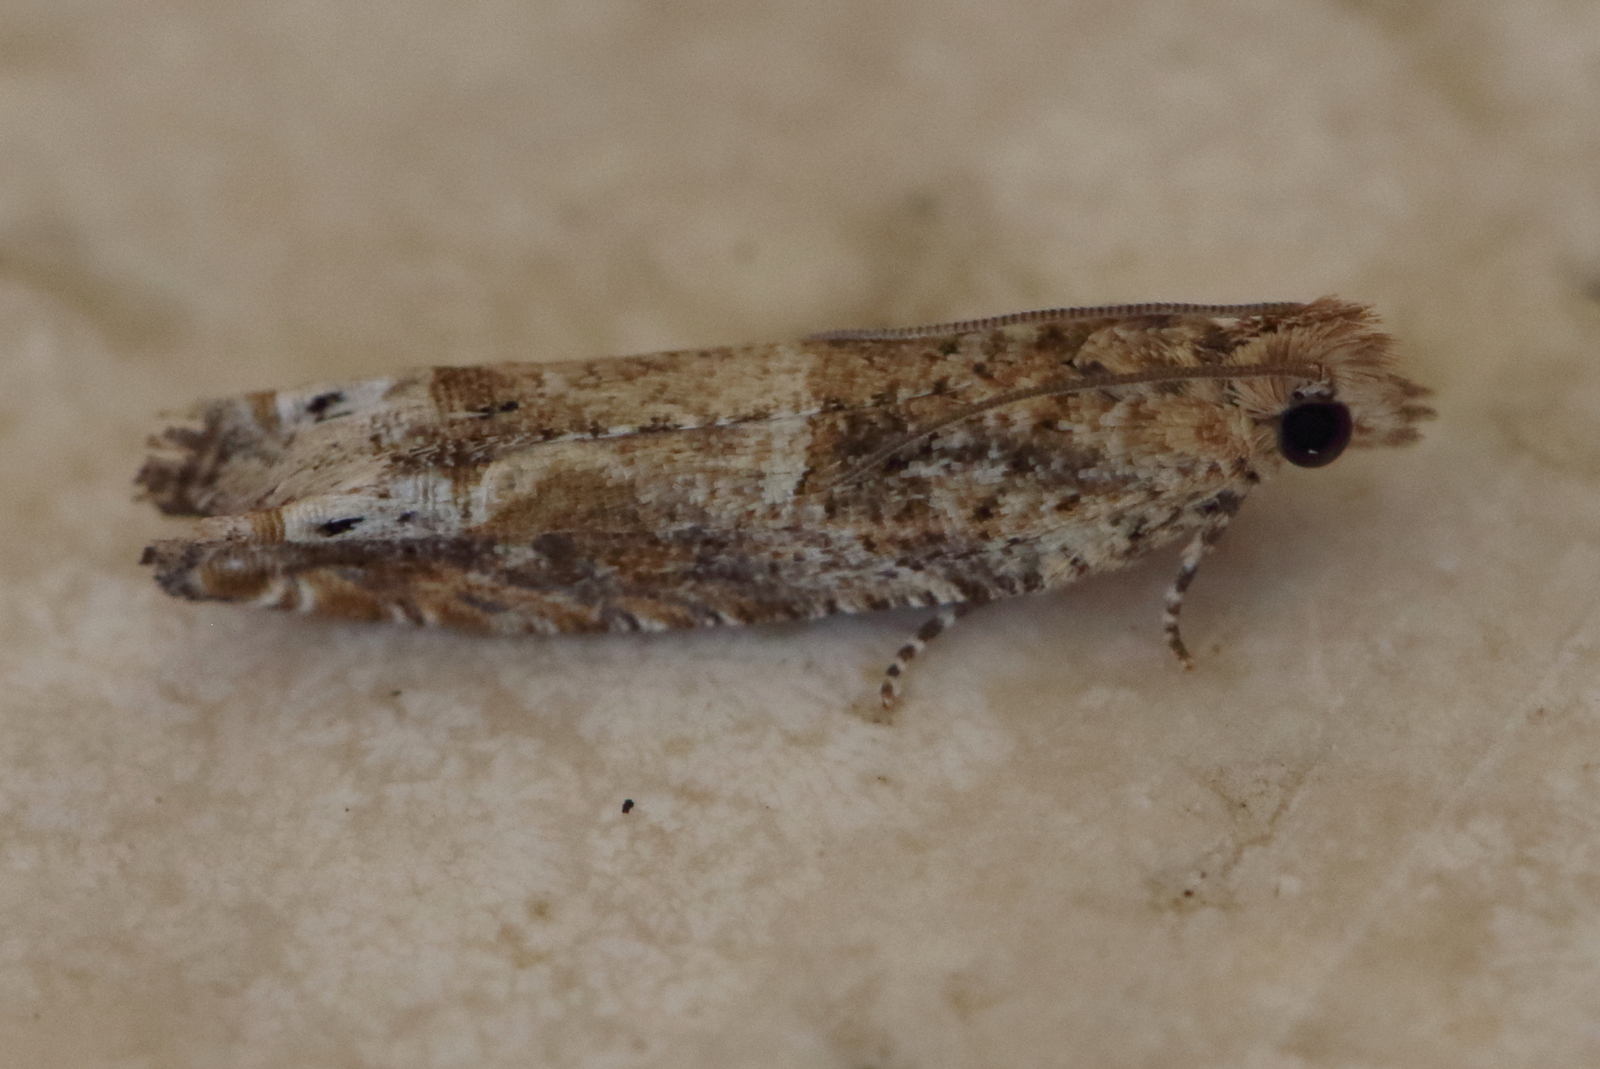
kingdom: Animalia
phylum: Arthropoda
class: Insecta
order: Lepidoptera
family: Tortricidae
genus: Crocidosema
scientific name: Crocidosema plebejana
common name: Southern bell
